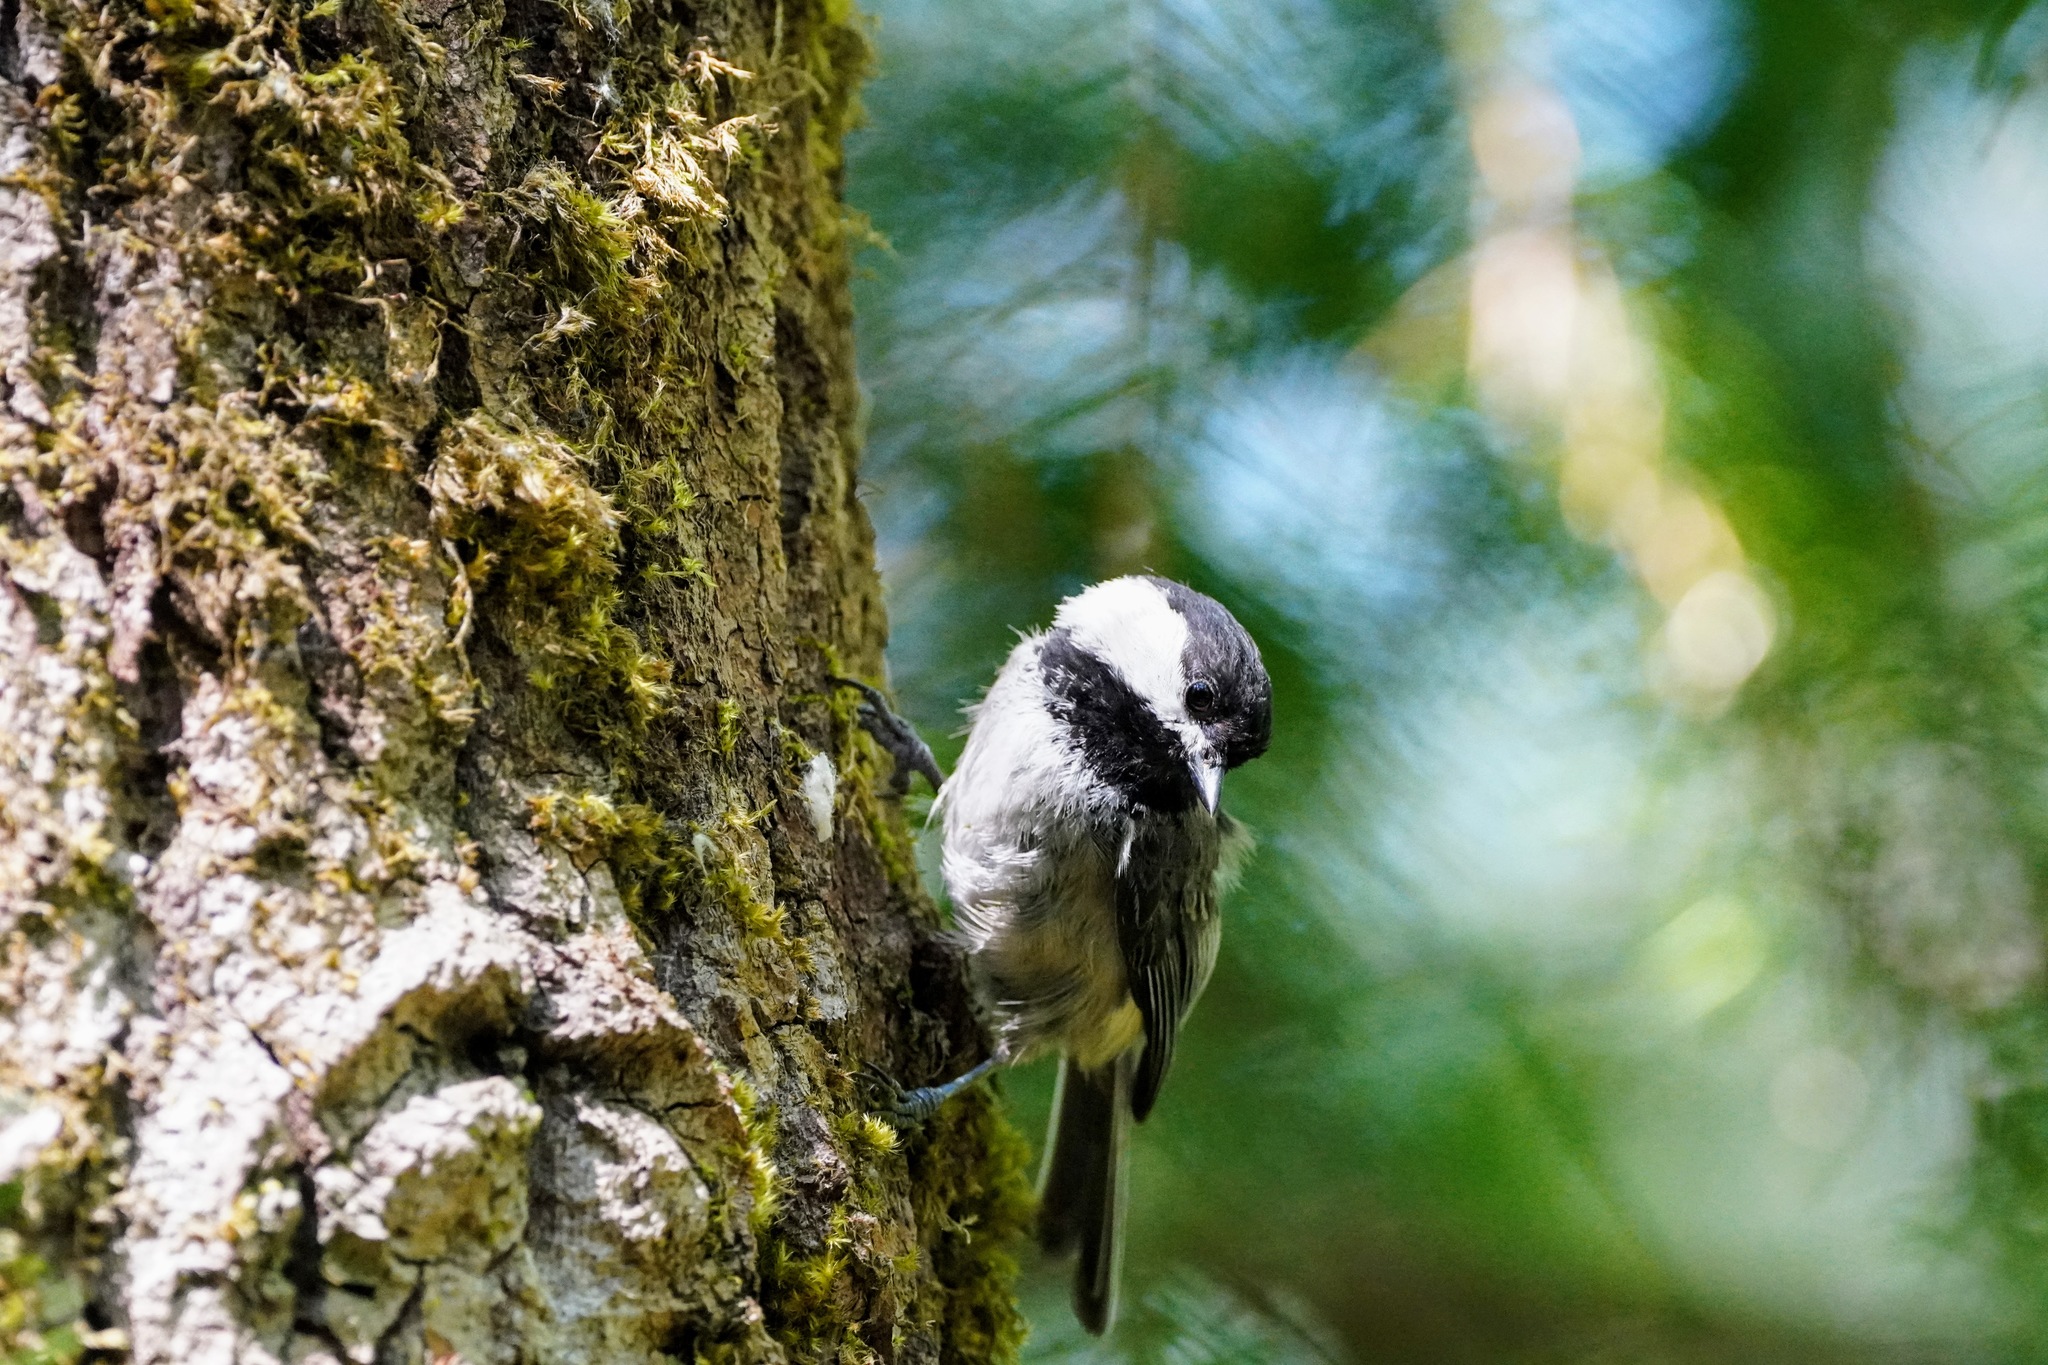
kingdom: Animalia
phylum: Chordata
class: Aves
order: Passeriformes
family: Paridae
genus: Poecile
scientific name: Poecile atricapillus
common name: Black-capped chickadee
